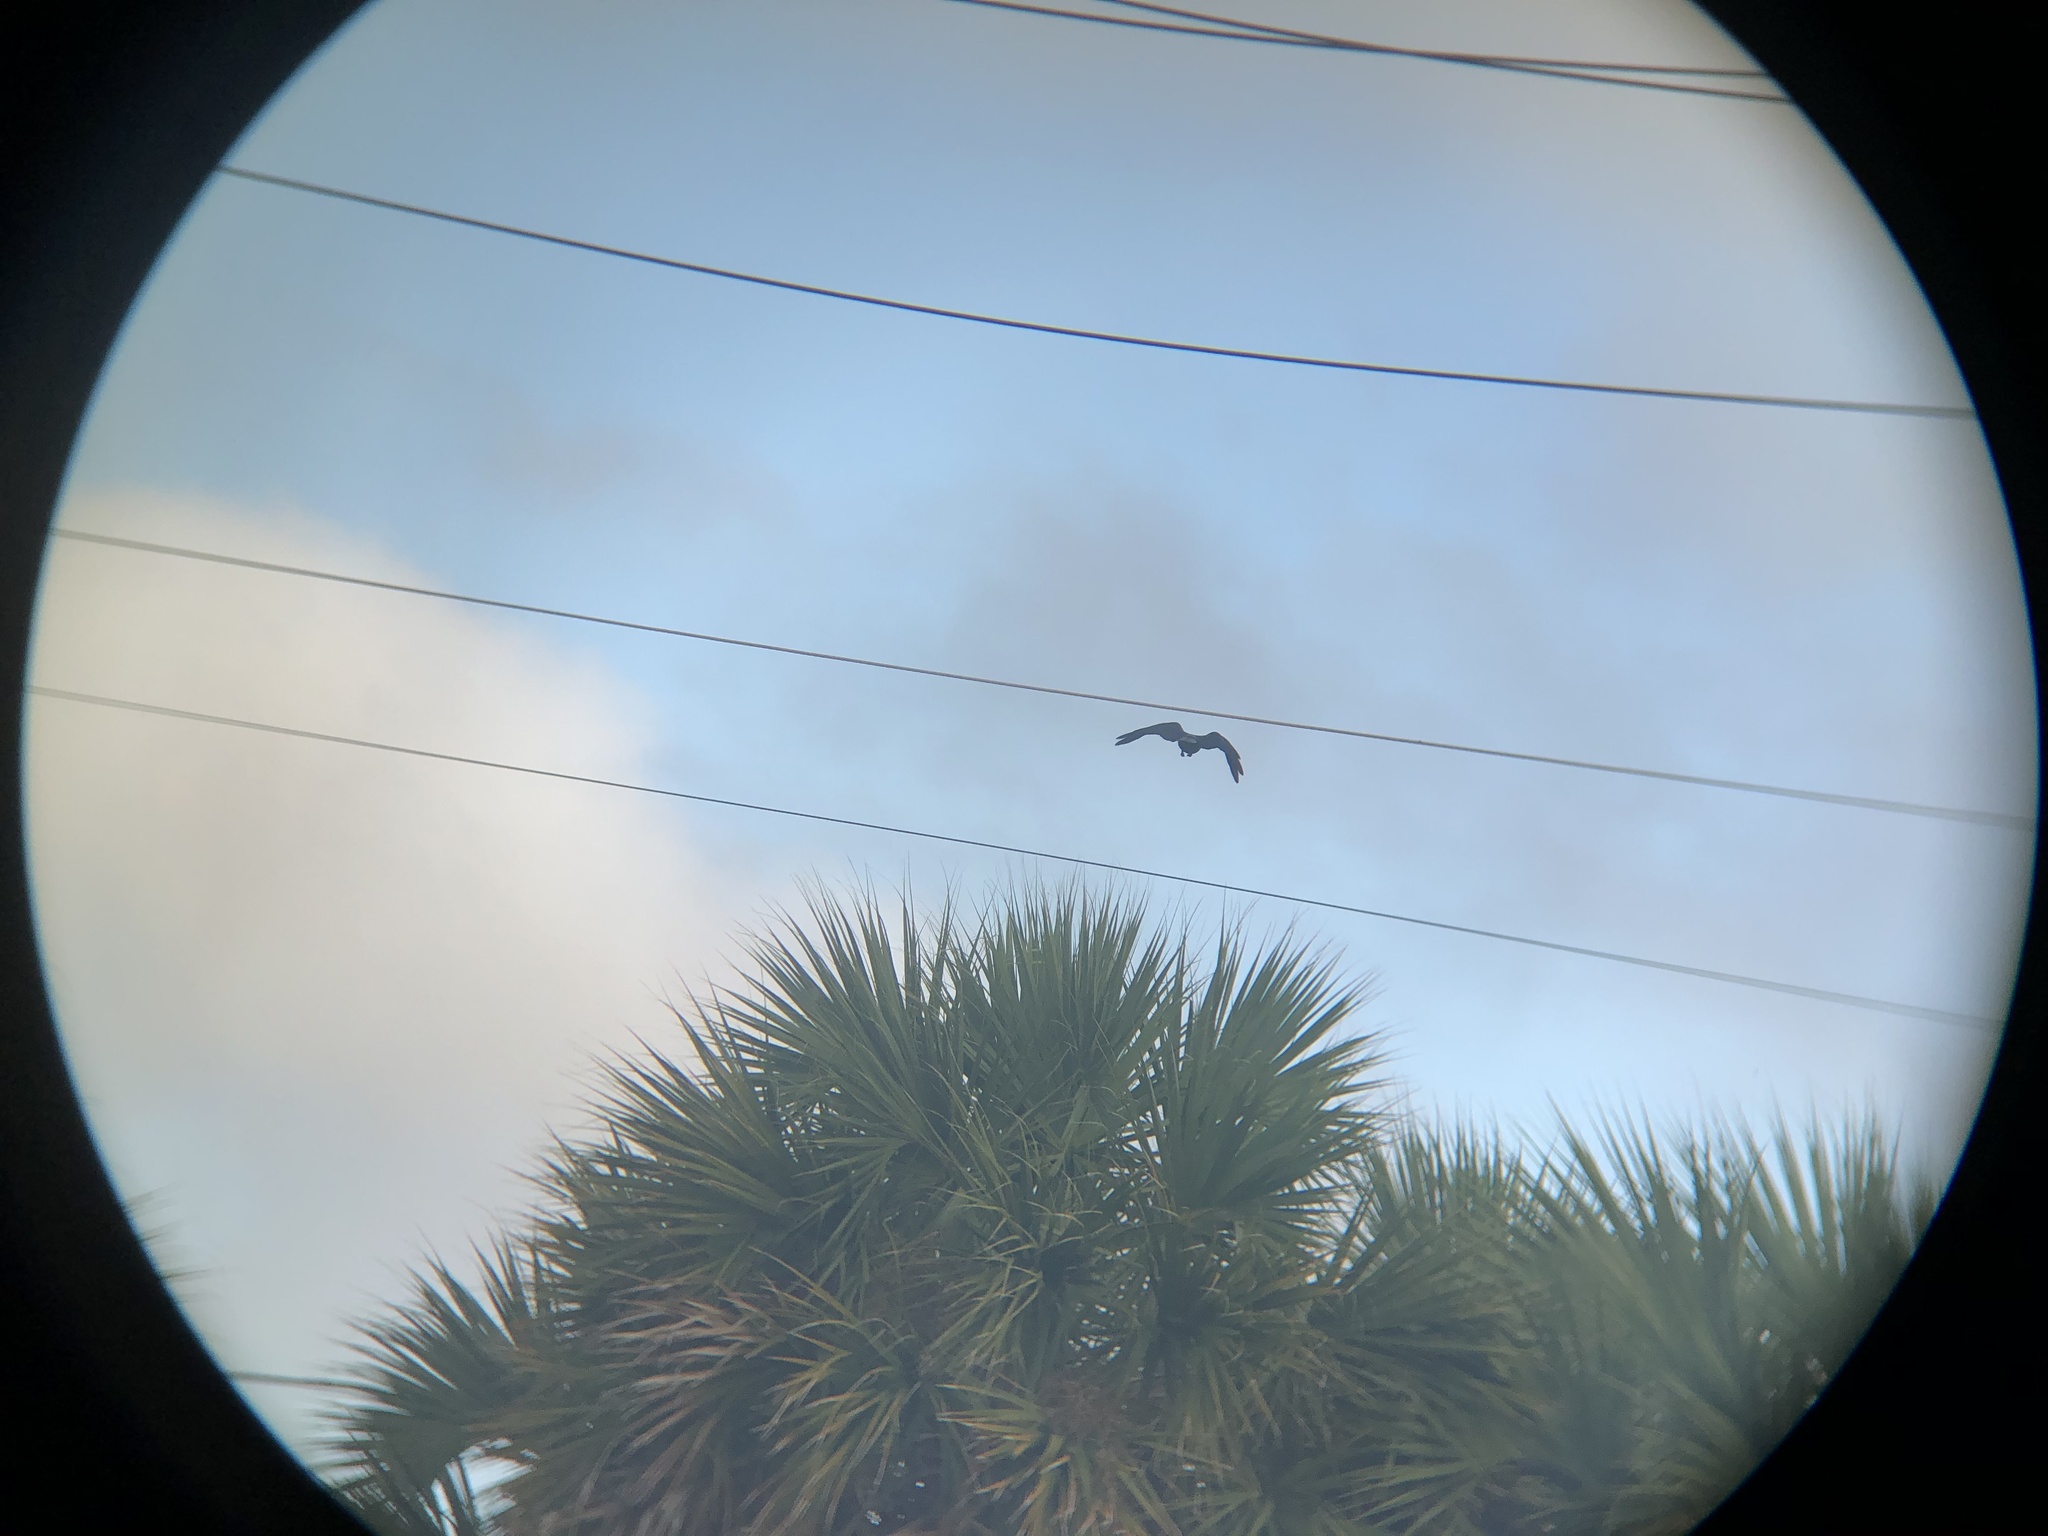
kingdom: Animalia
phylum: Chordata
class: Aves
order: Passeriformes
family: Corvidae
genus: Corvus
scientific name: Corvus ossifragus
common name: Fish crow
